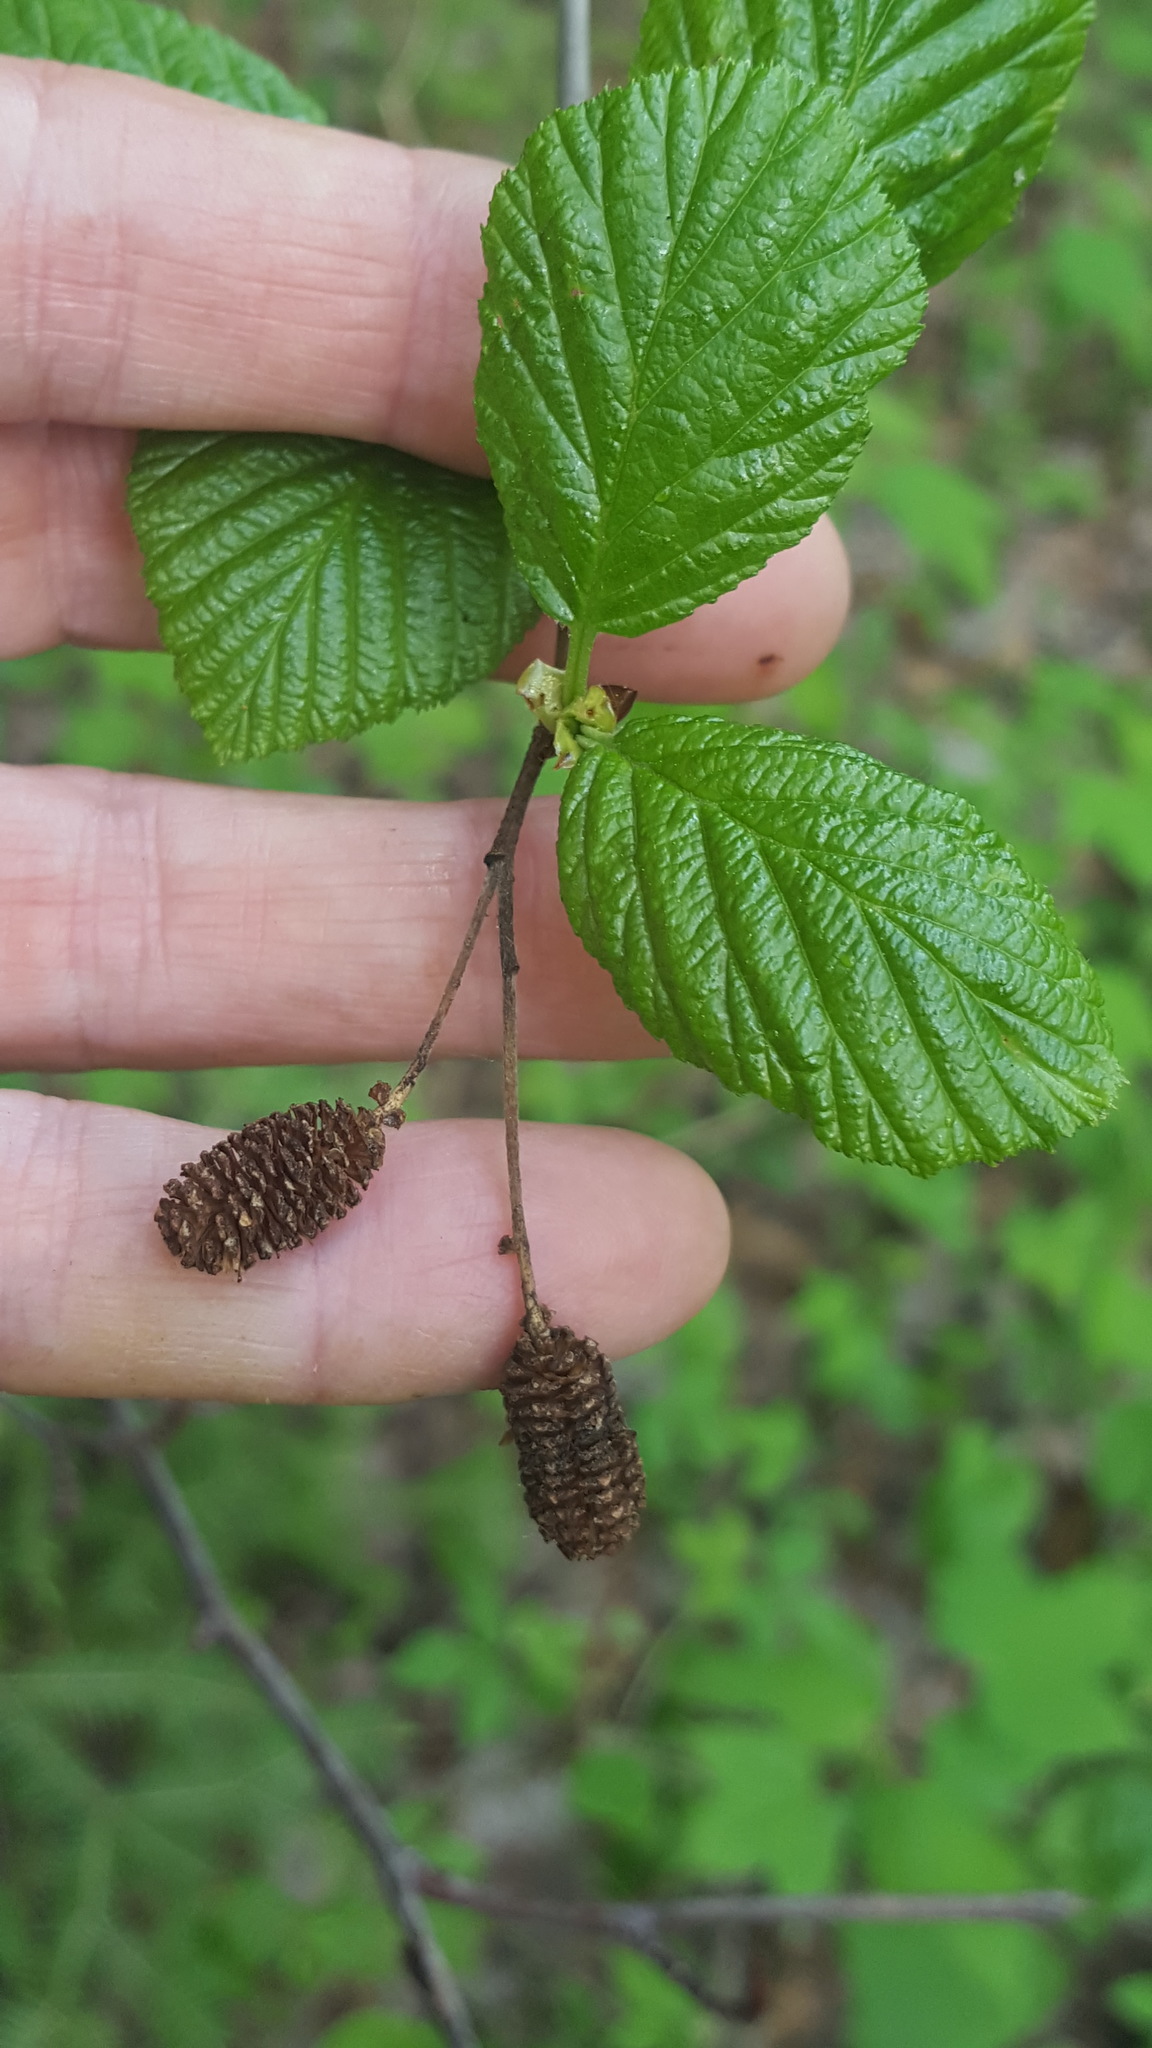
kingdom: Plantae
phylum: Tracheophyta
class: Magnoliopsida
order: Fagales
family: Betulaceae
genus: Alnus
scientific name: Alnus alnobetula
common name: Green alder
